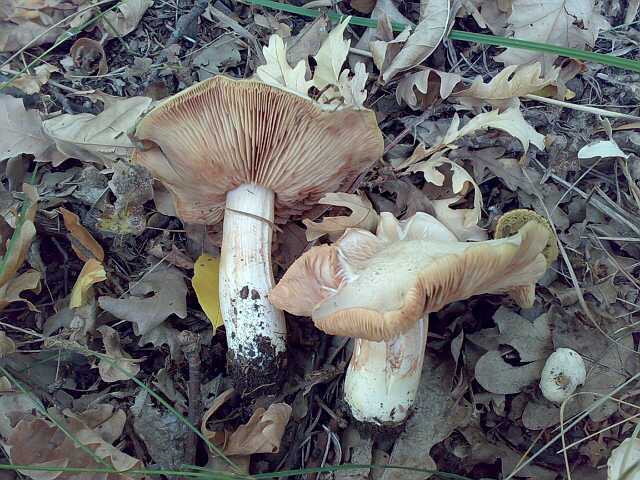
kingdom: Fungi
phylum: Basidiomycota
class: Agaricomycetes
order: Agaricales
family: Entolomataceae
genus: Entoloma
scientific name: Entoloma sinuatum
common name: Livid pinkgill
